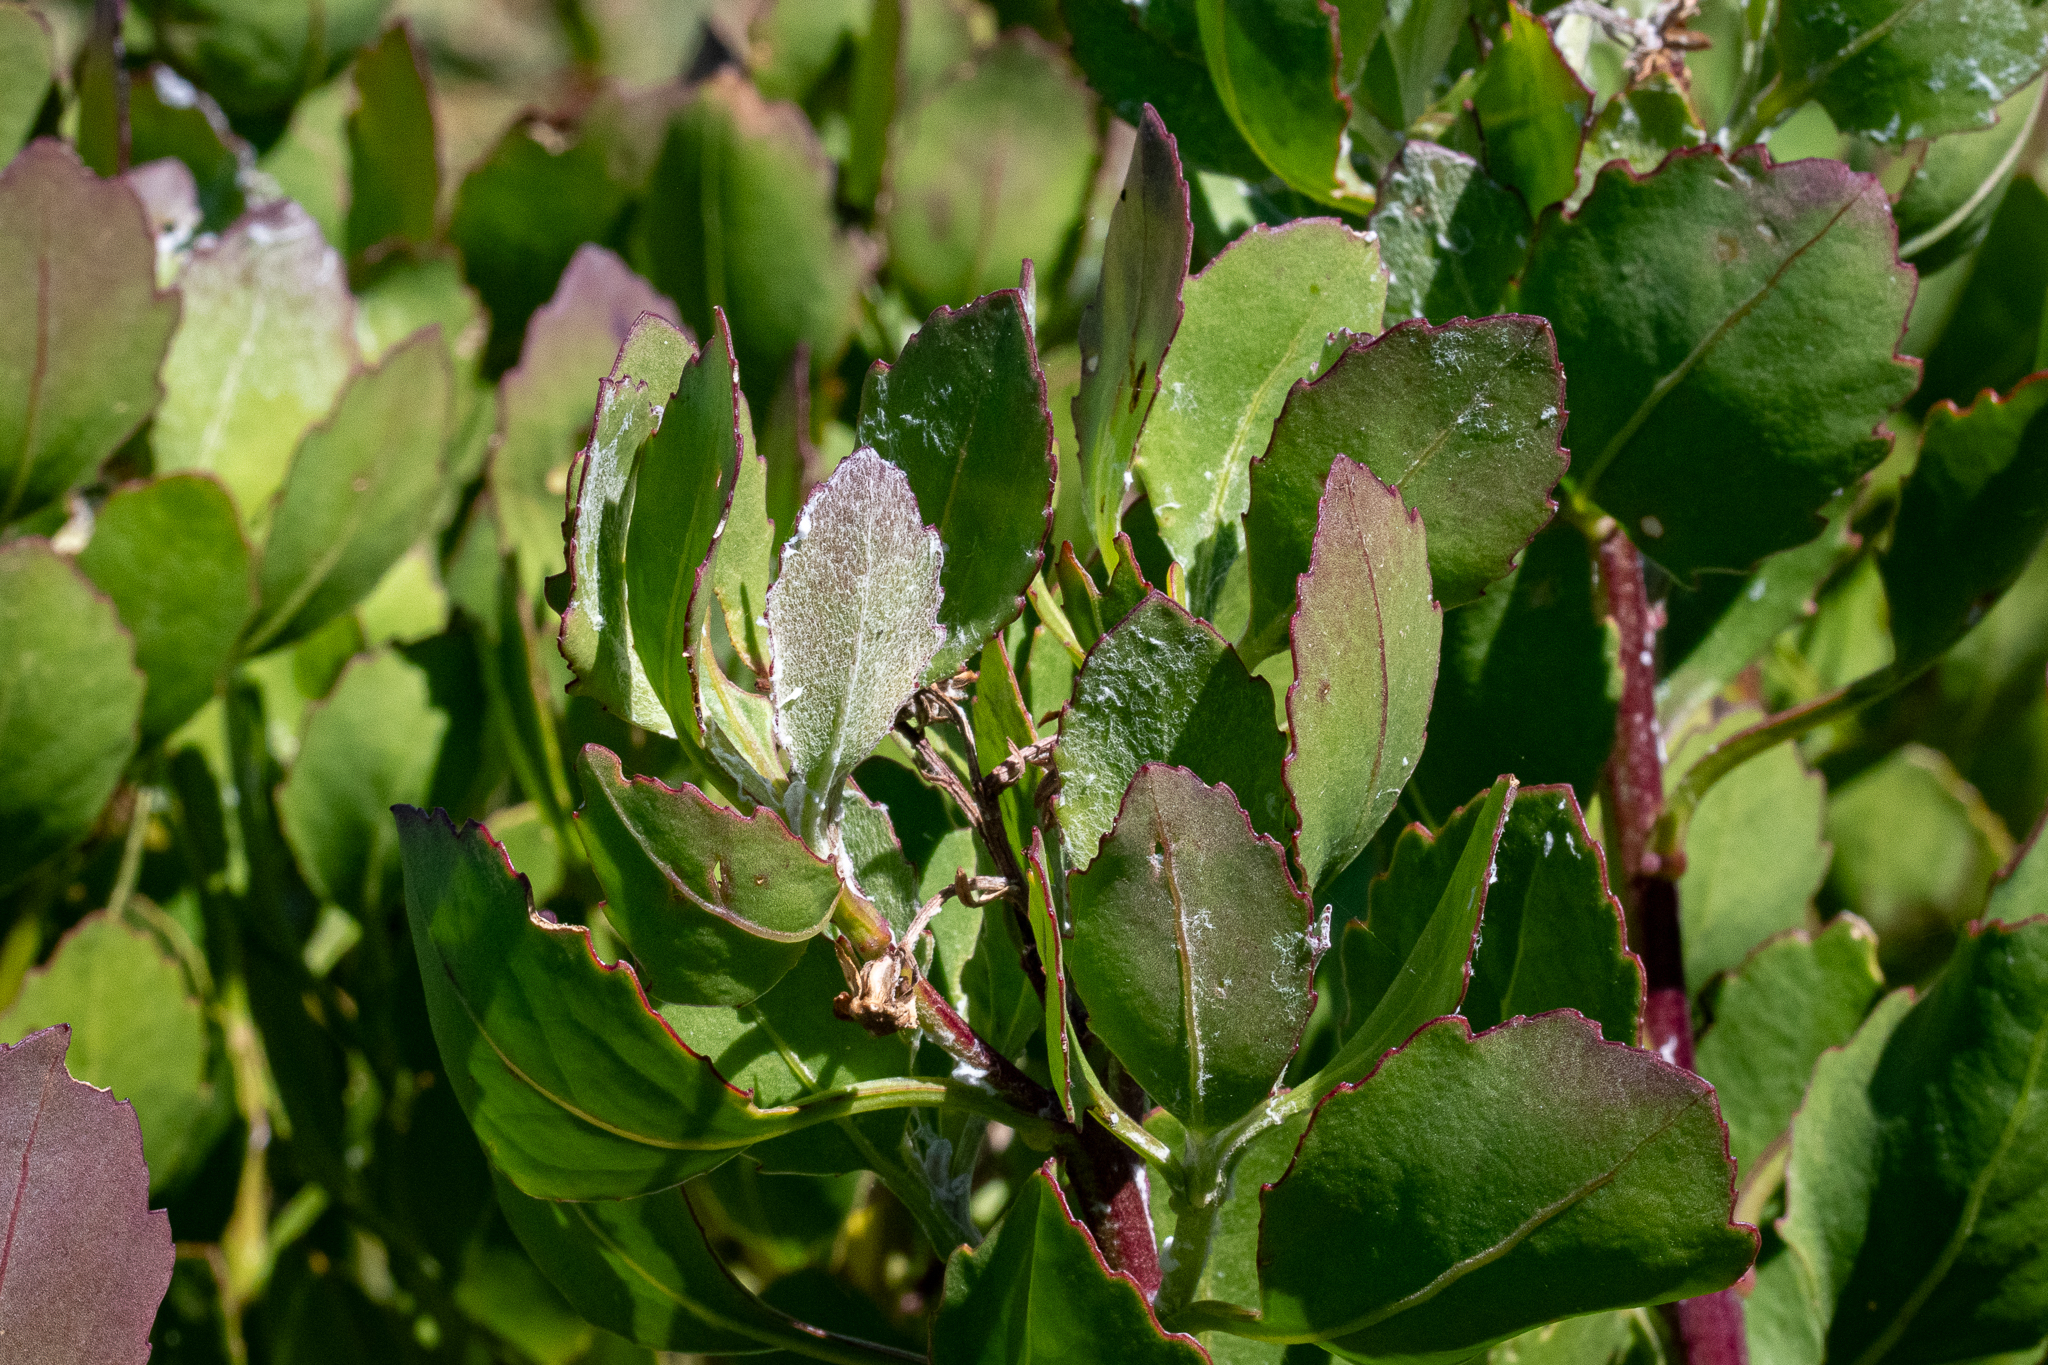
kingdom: Plantae
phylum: Tracheophyta
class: Magnoliopsida
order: Asterales
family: Asteraceae
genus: Osteospermum
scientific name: Osteospermum moniliferum
